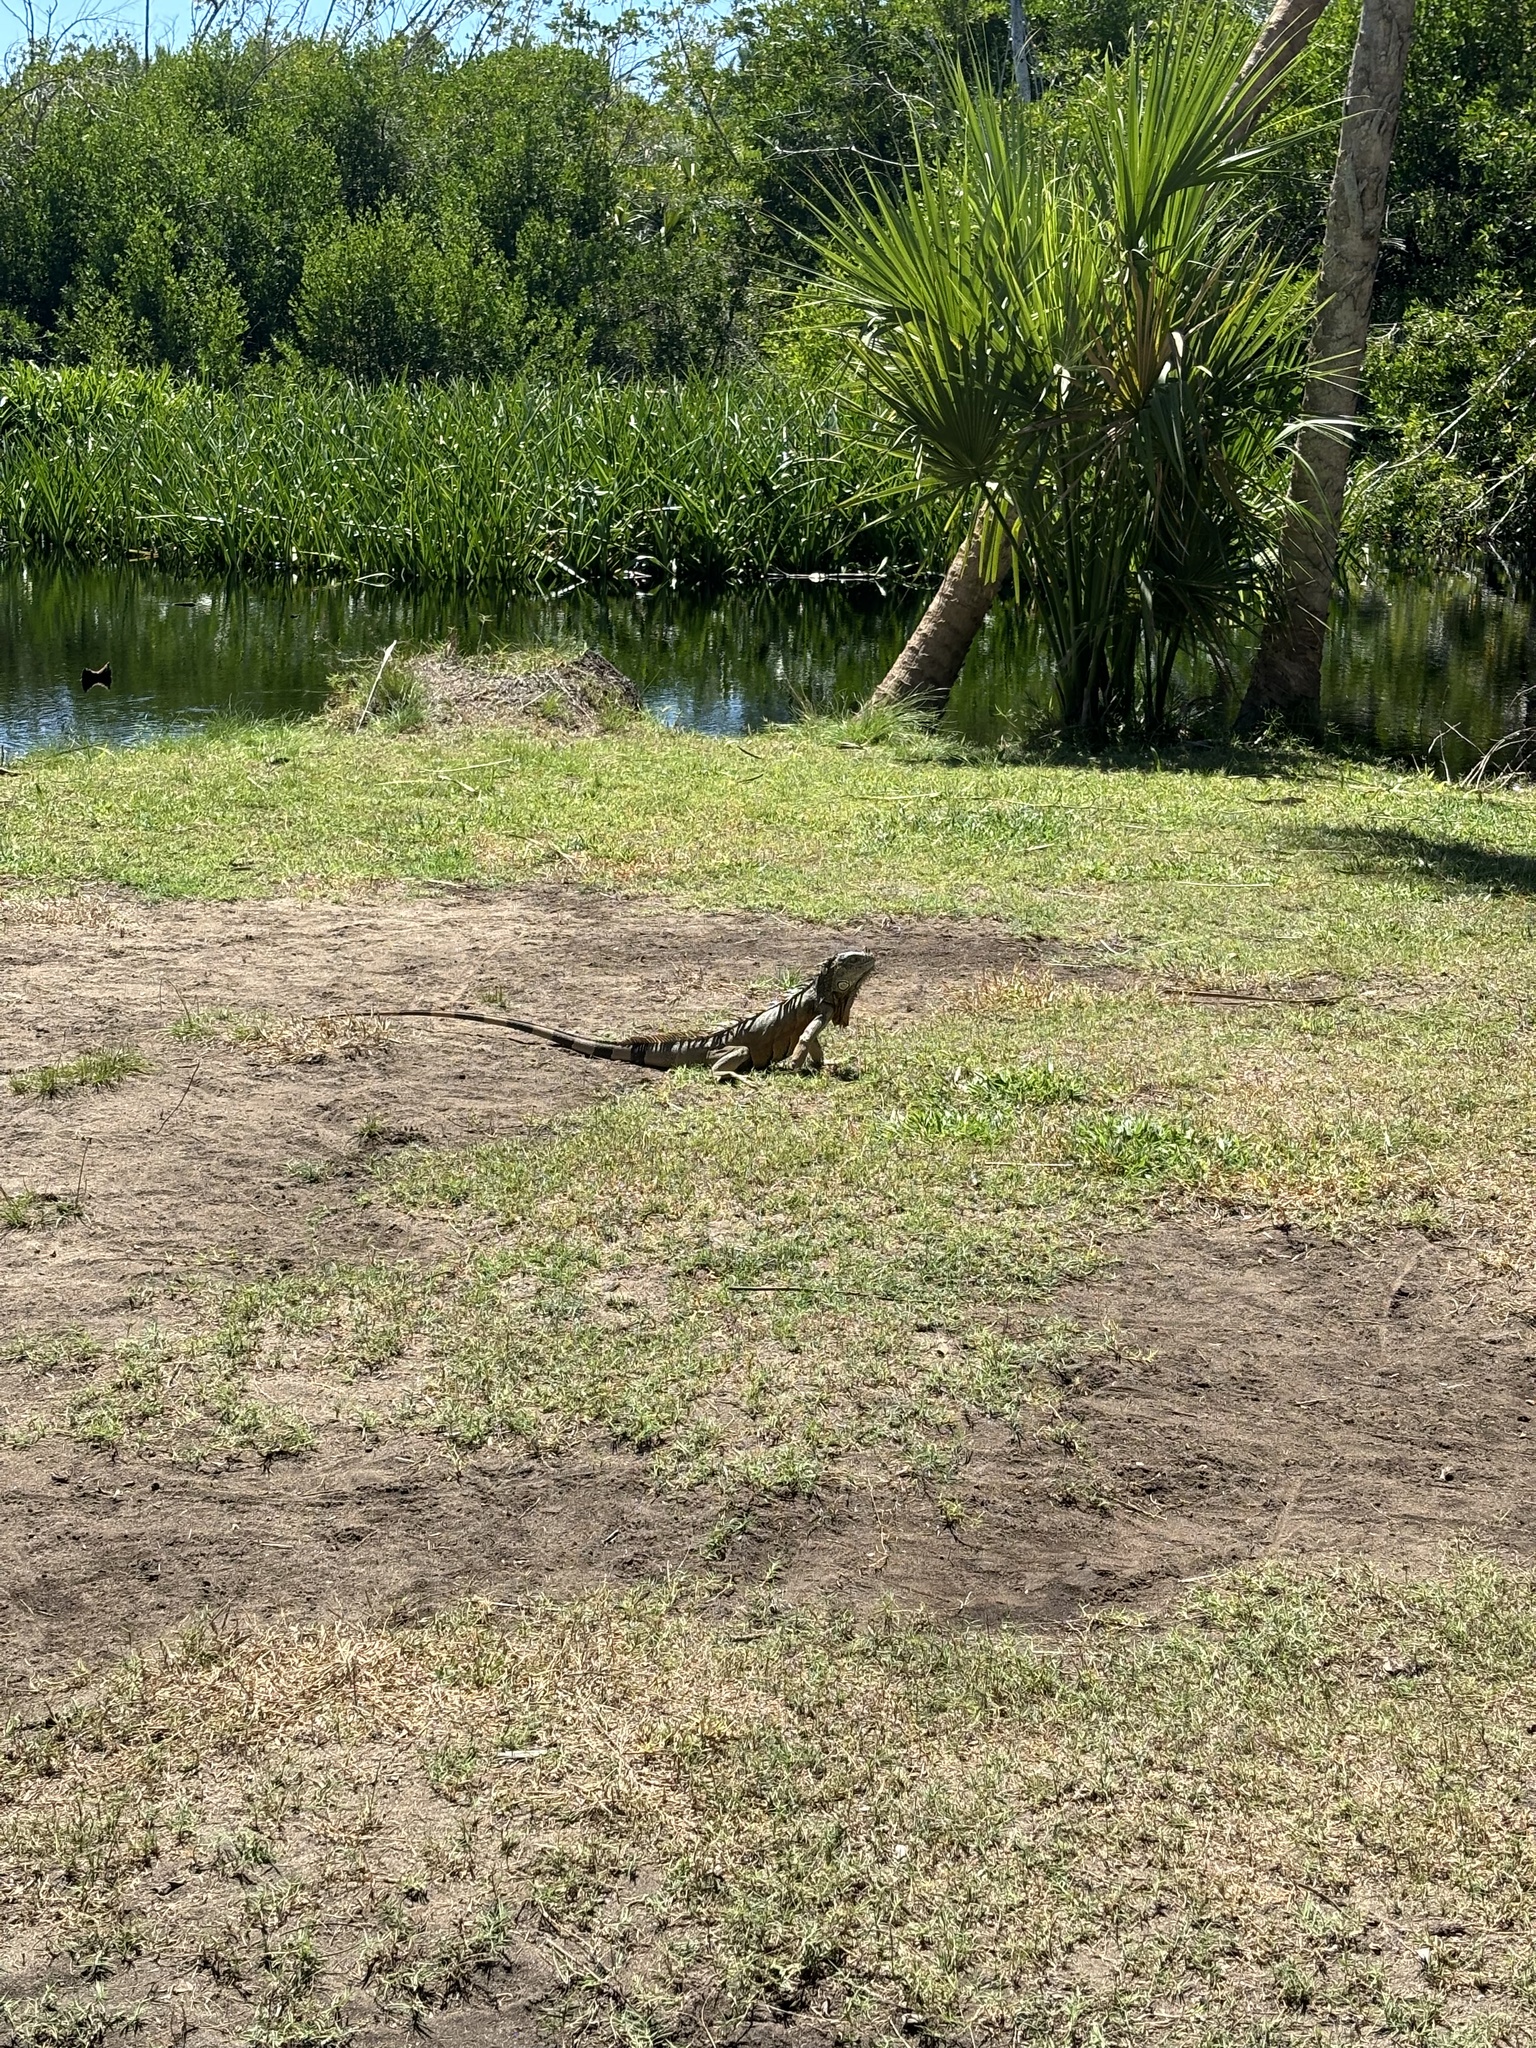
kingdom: Animalia
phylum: Chordata
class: Squamata
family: Iguanidae
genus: Iguana
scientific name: Iguana iguana
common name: Green iguana
